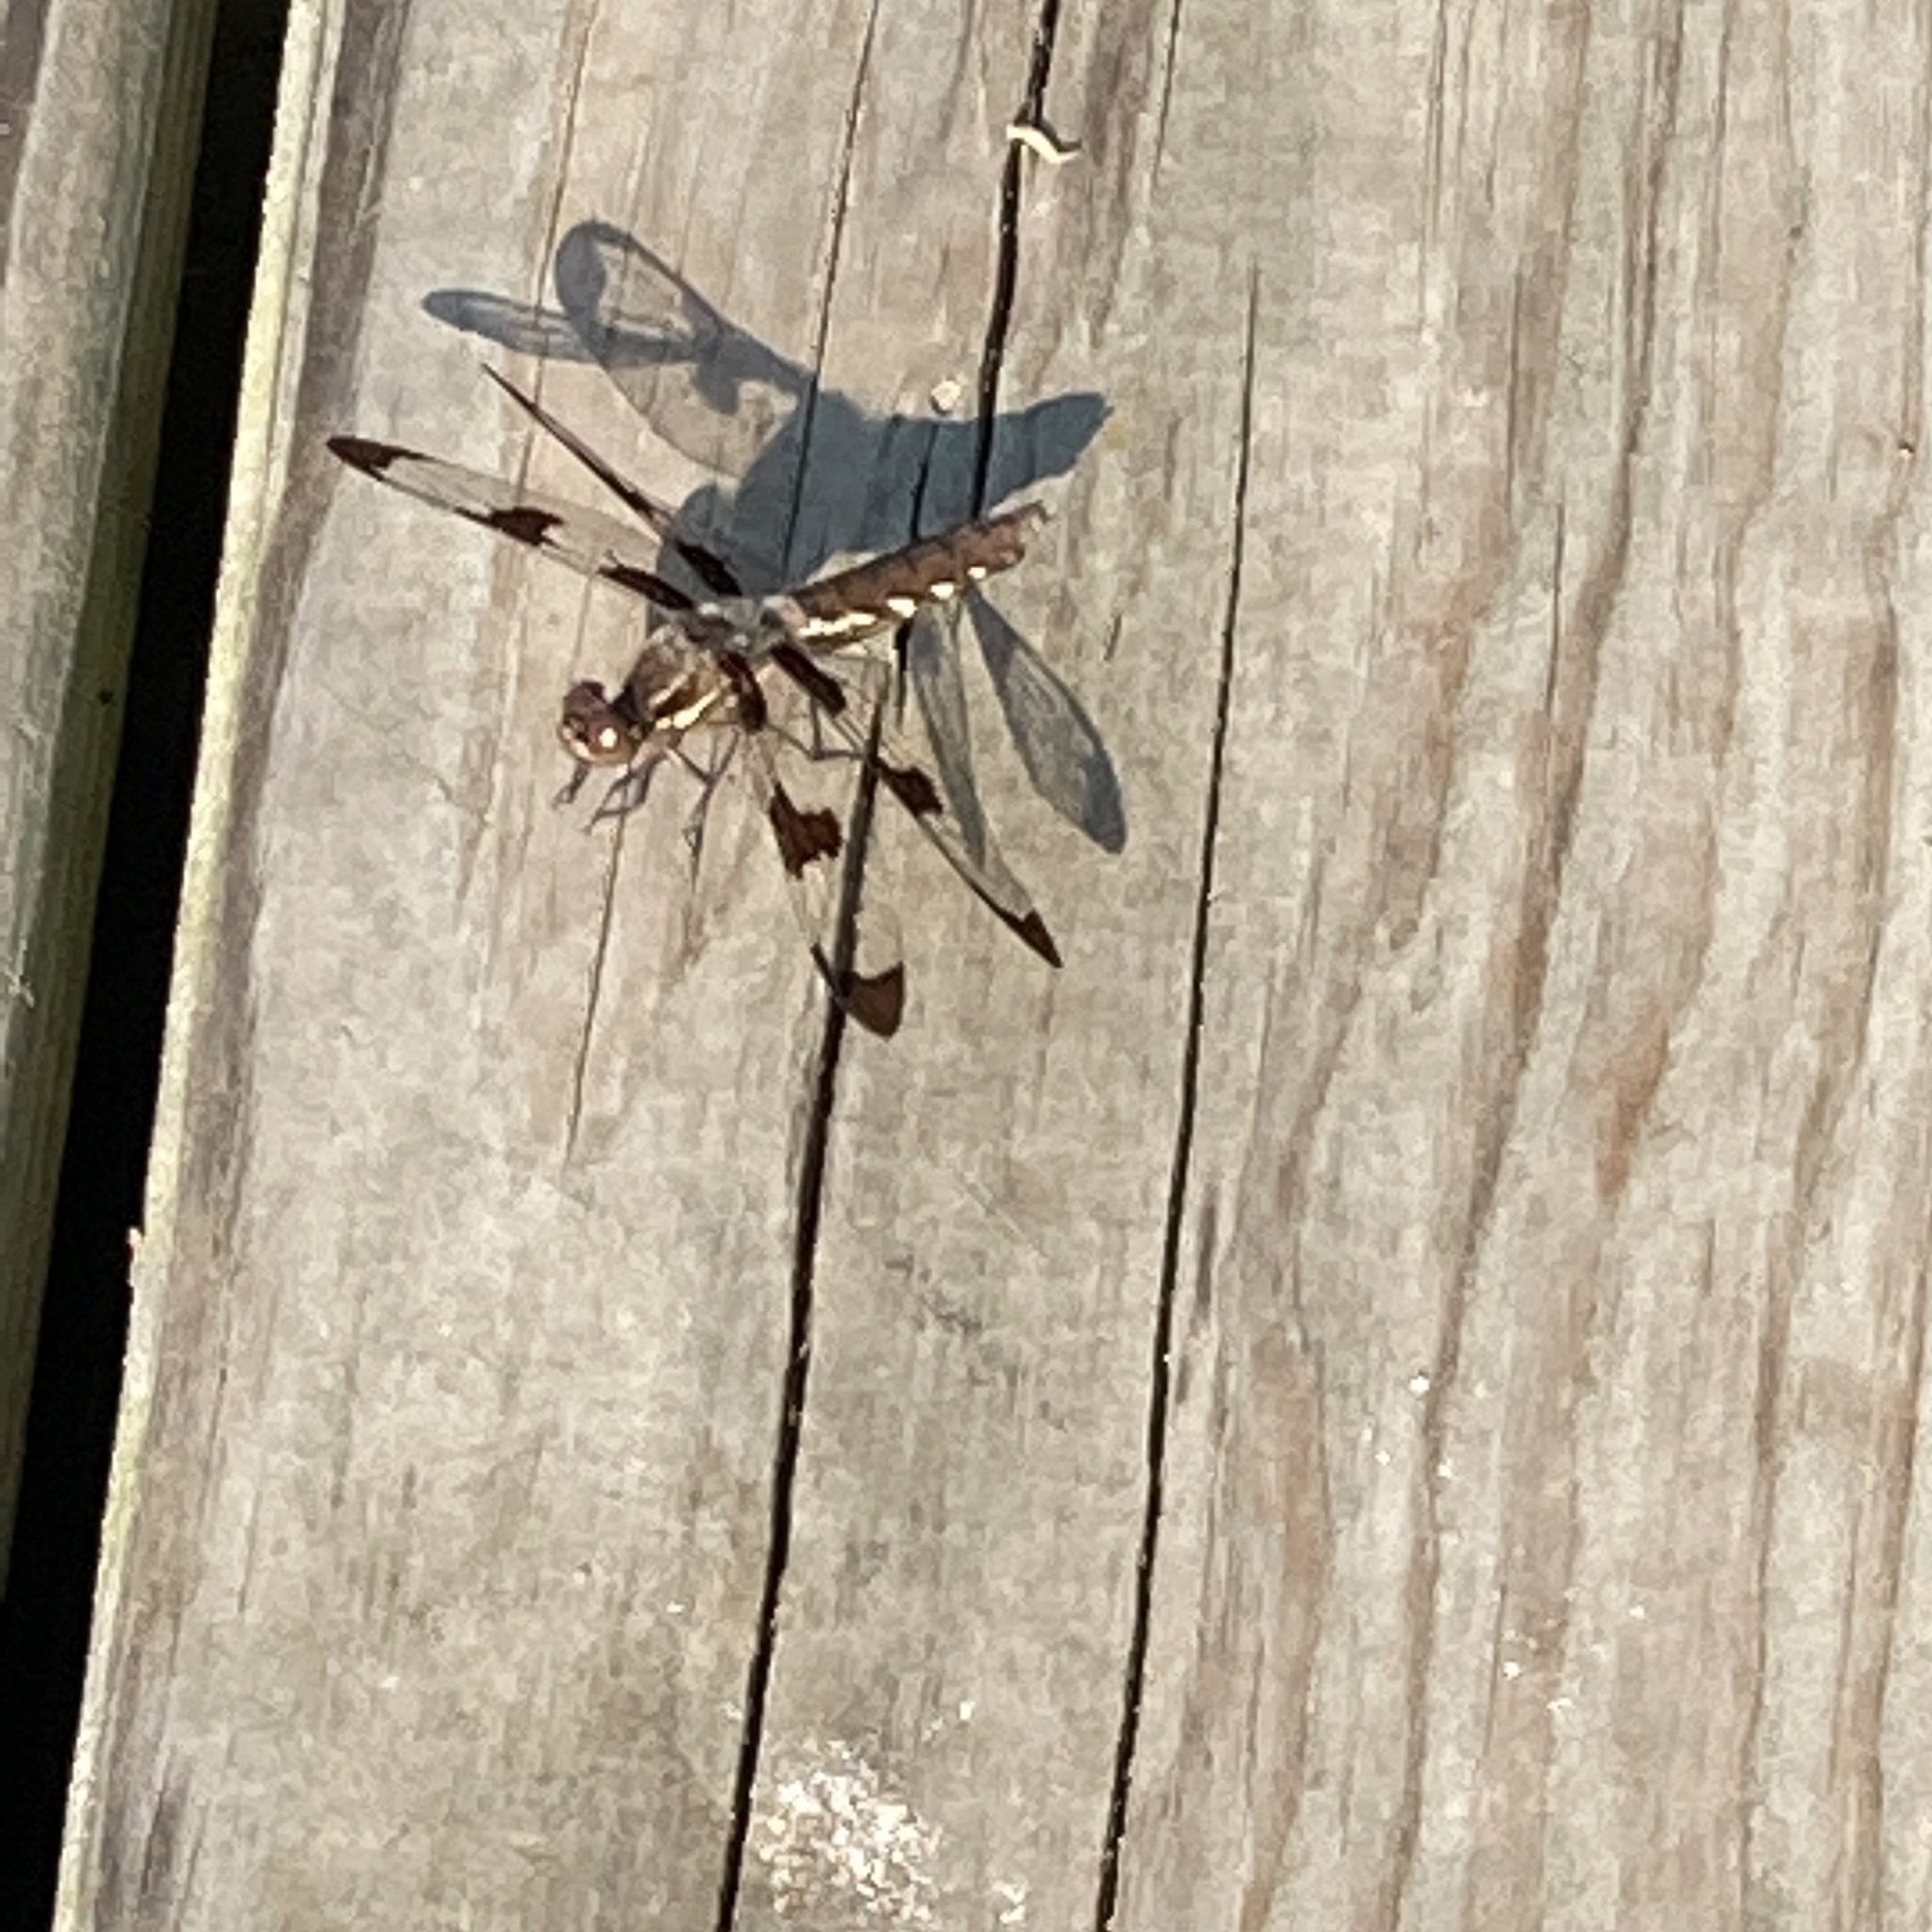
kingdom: Animalia
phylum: Arthropoda
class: Insecta
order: Odonata
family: Libellulidae
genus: Plathemis
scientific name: Plathemis lydia
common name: Common whitetail
